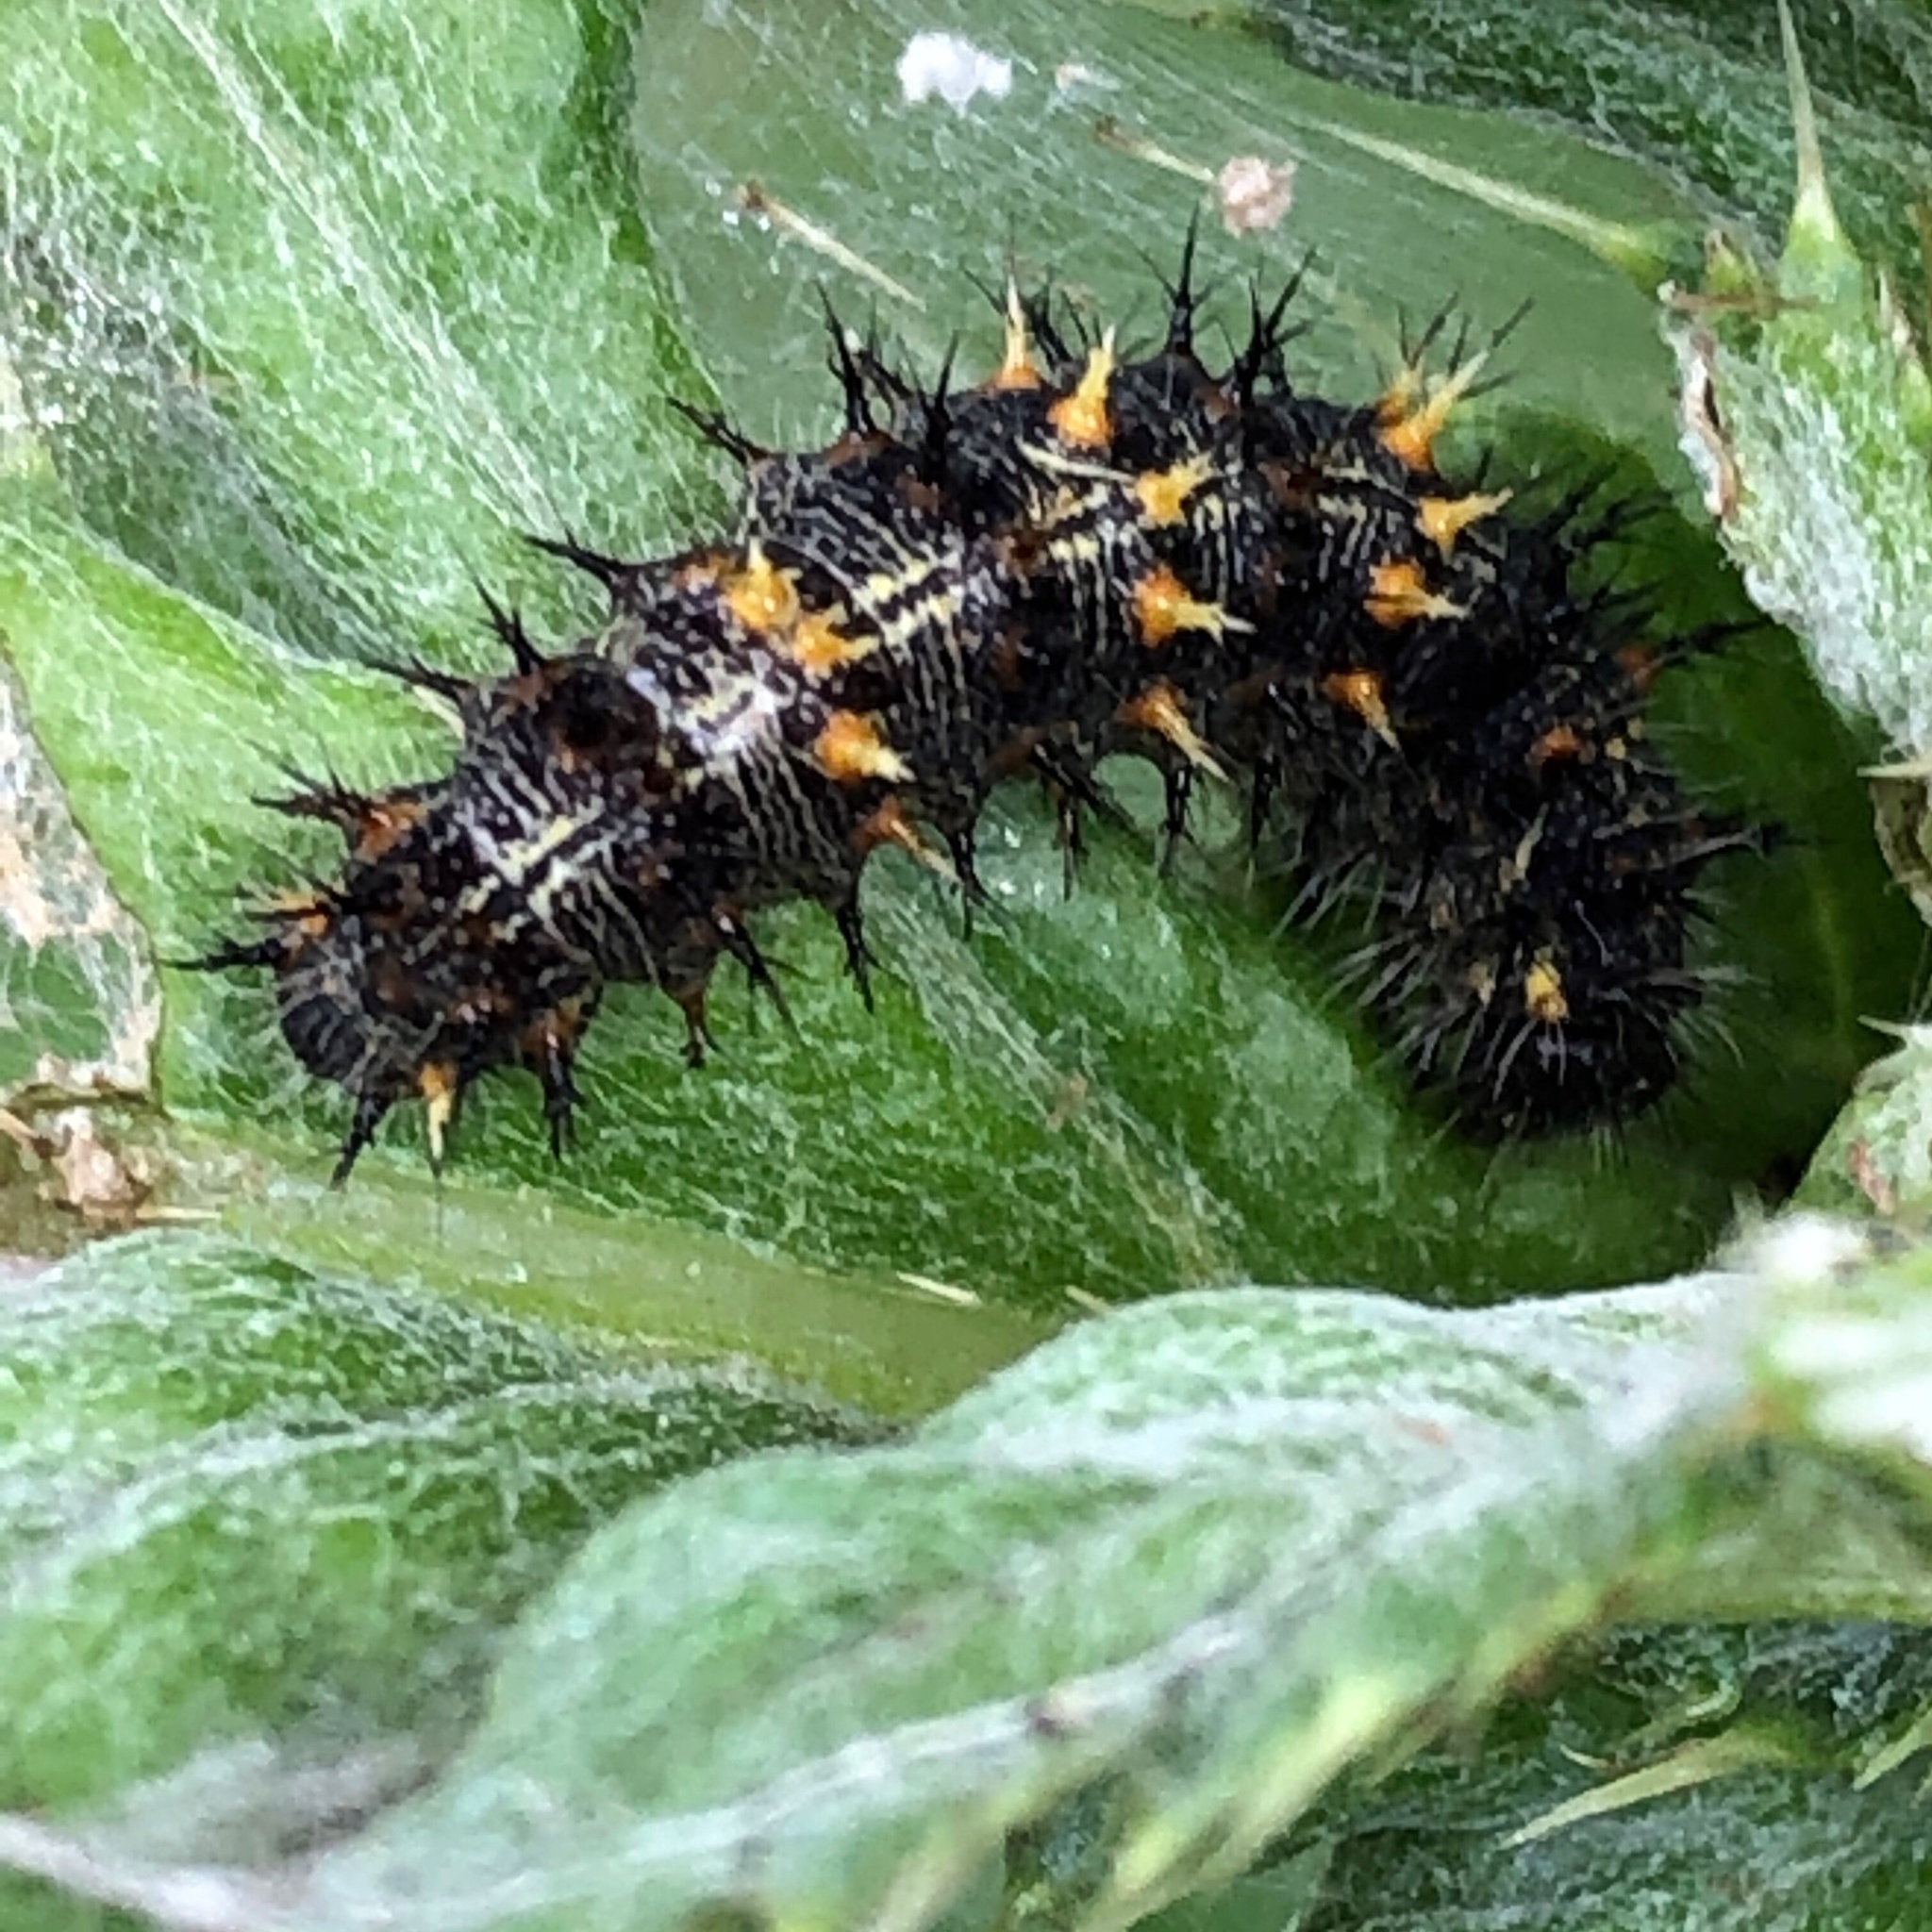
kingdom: Animalia
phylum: Arthropoda
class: Insecta
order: Lepidoptera
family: Nymphalidae
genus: Vanessa
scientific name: Vanessa cardui
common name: Painted lady
